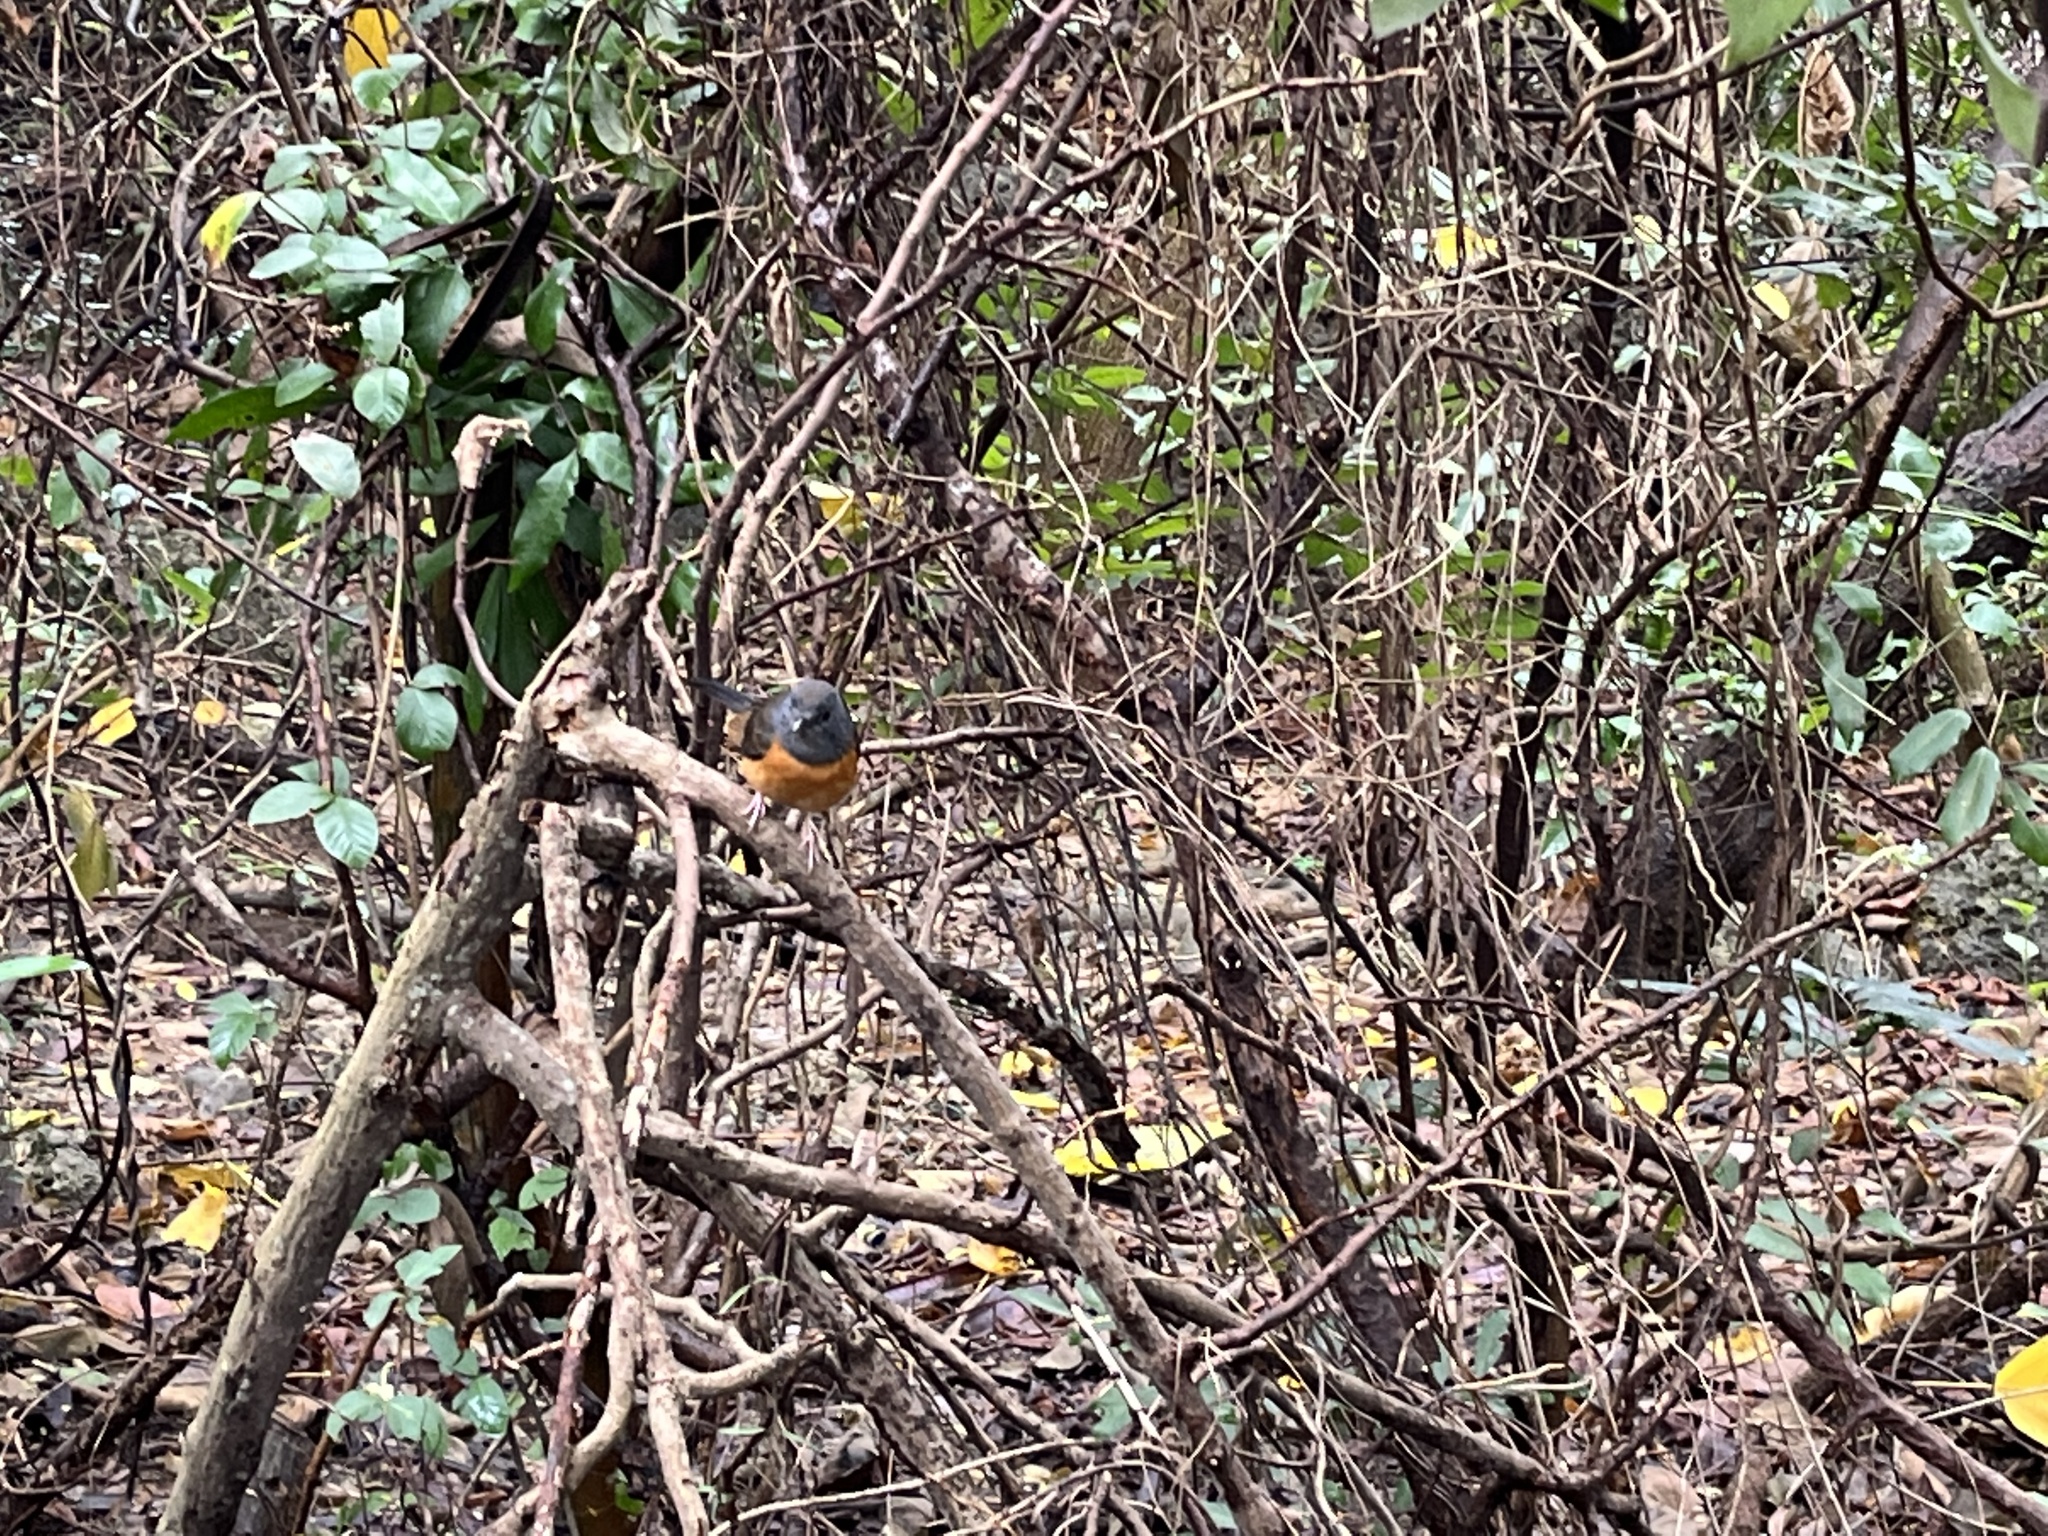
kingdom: Animalia
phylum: Chordata
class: Aves
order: Passeriformes
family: Muscicapidae
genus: Copsychus
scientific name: Copsychus malabaricus
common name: White-rumped shama
